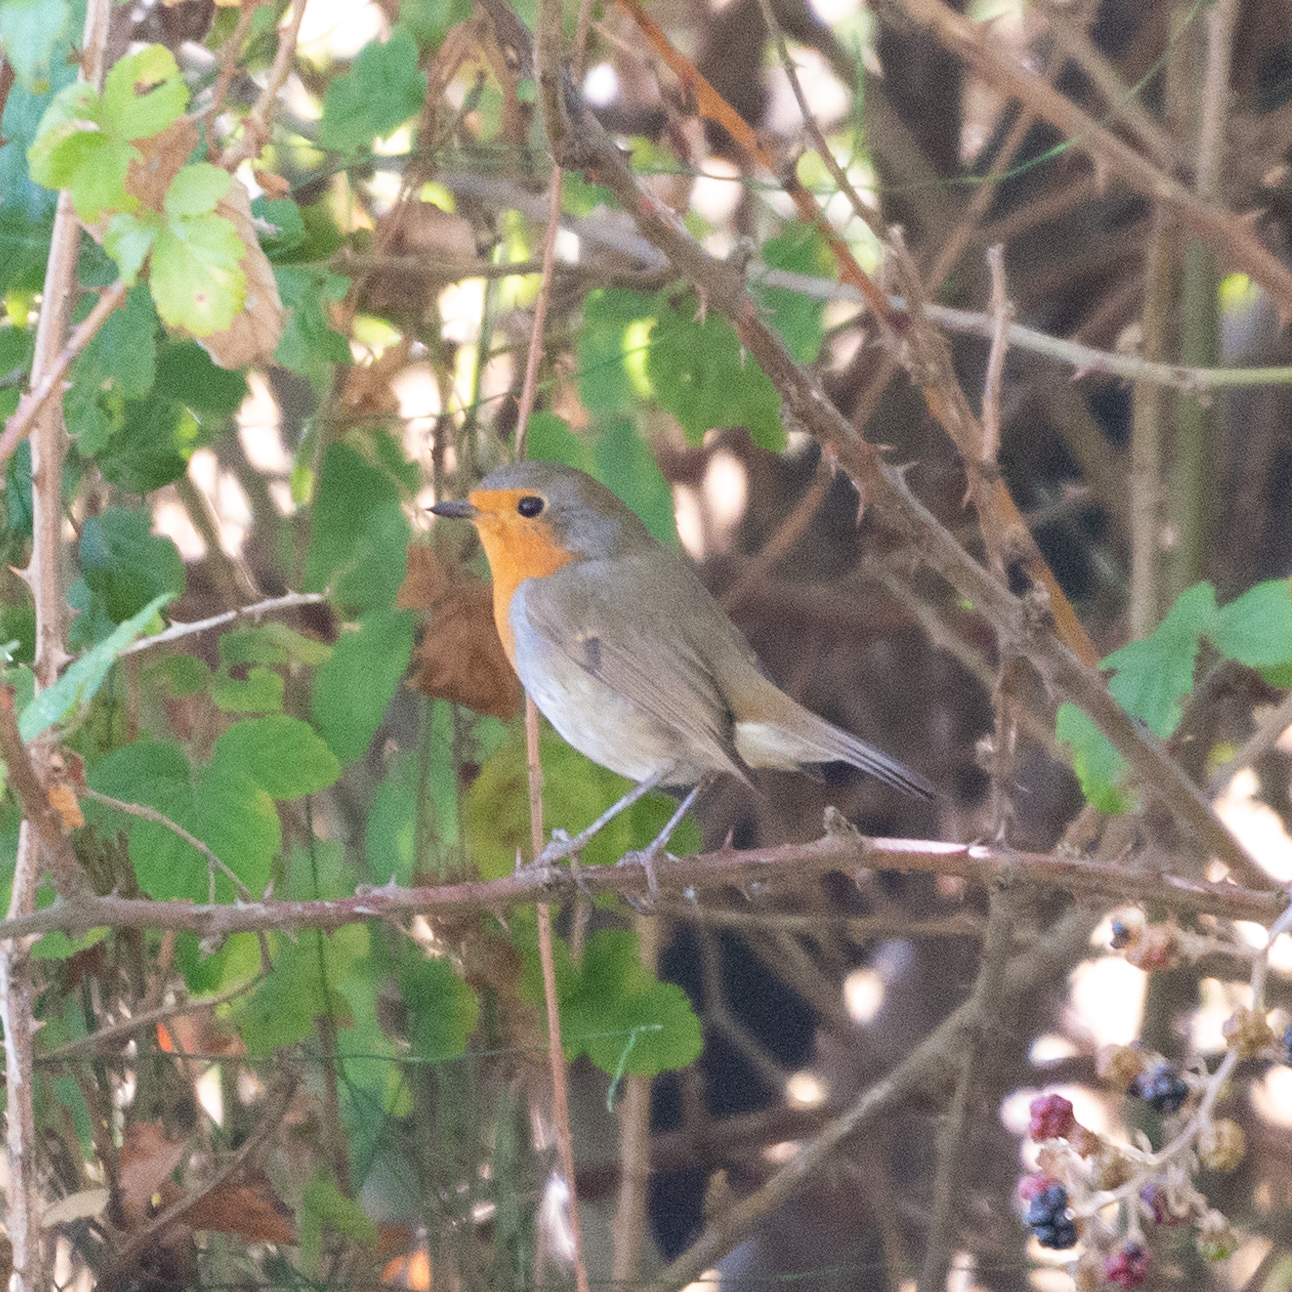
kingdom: Animalia
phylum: Chordata
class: Aves
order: Passeriformes
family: Muscicapidae
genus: Erithacus
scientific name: Erithacus rubecula
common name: European robin
